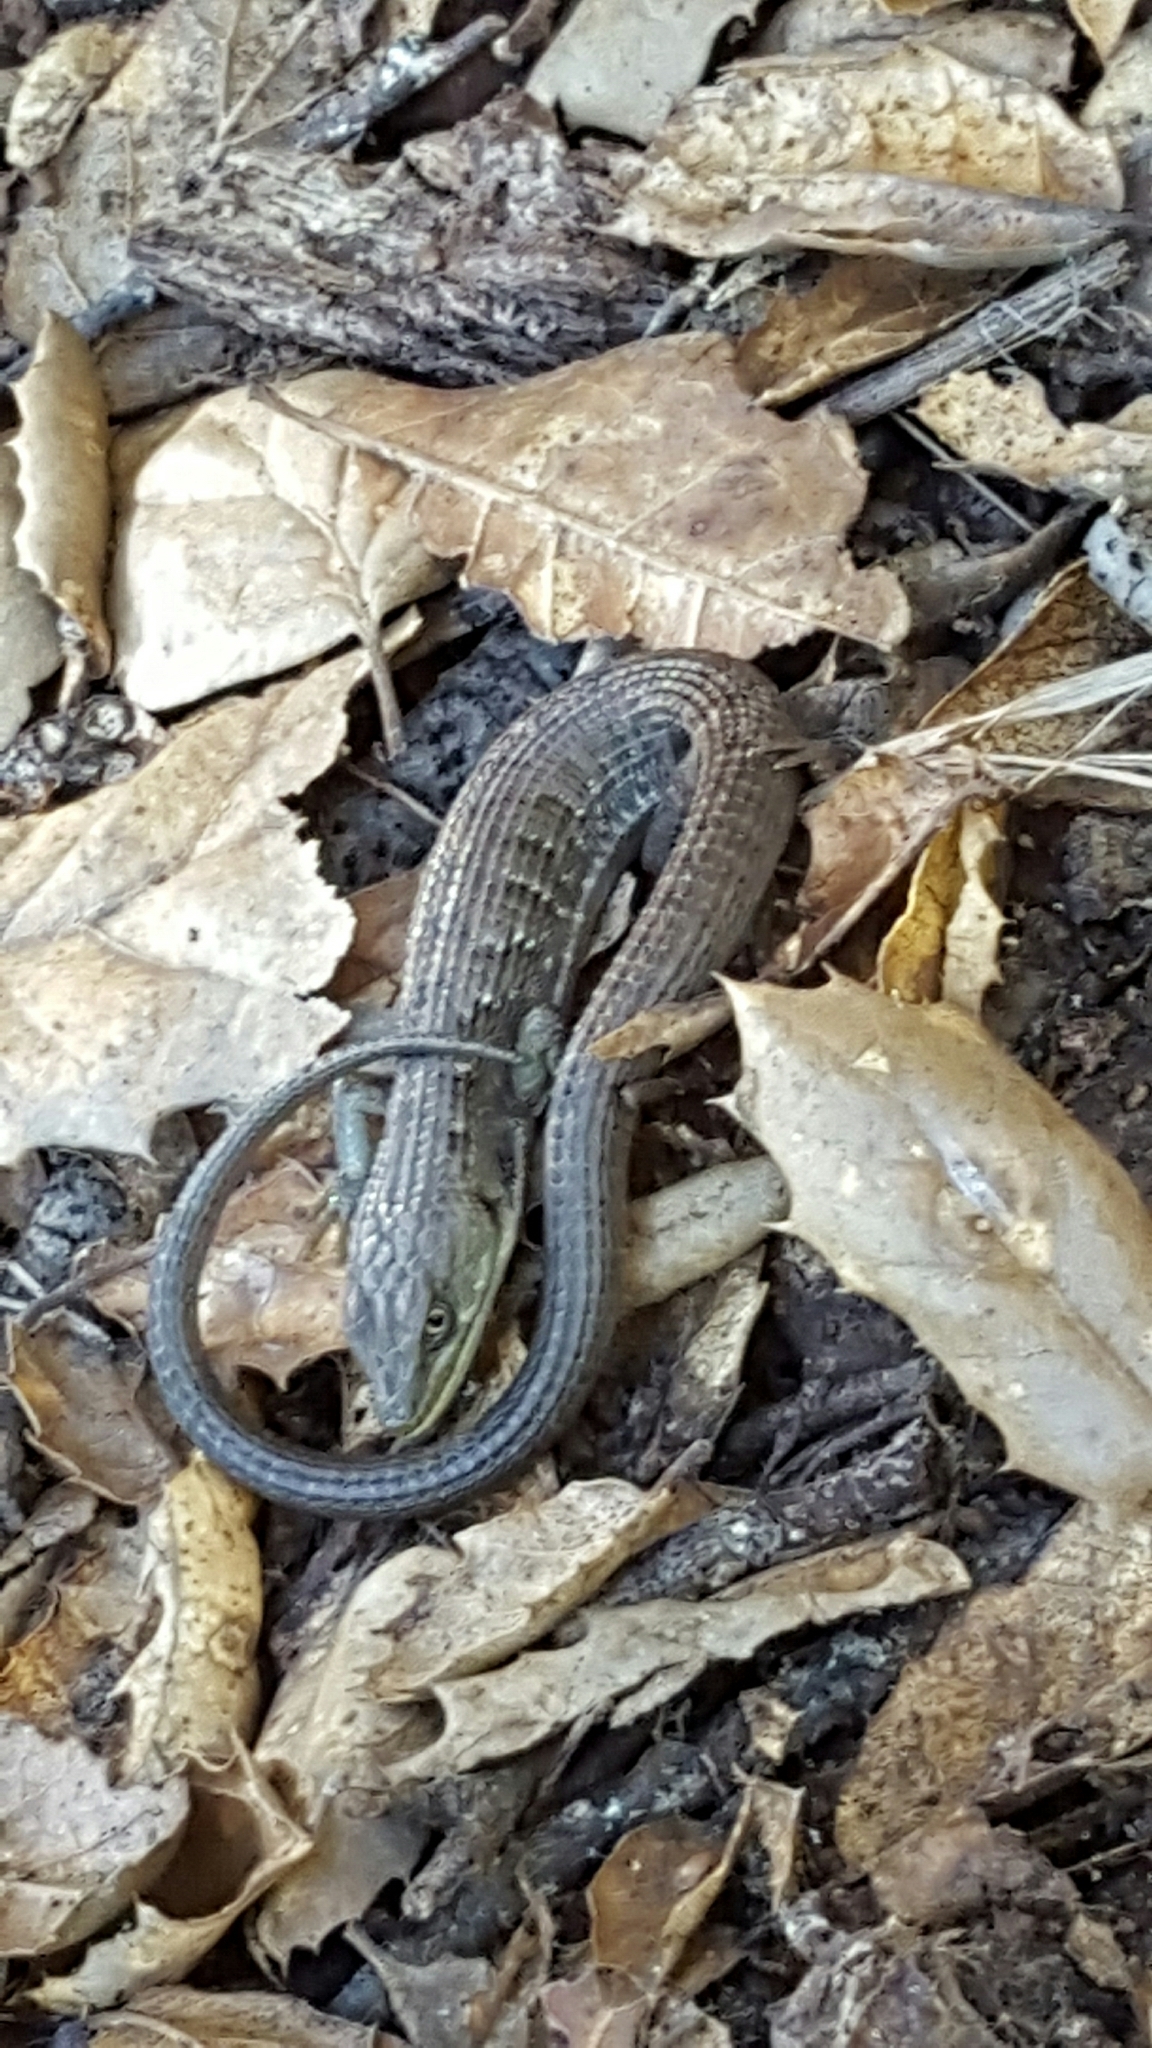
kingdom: Animalia
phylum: Chordata
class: Squamata
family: Anguidae
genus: Elgaria
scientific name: Elgaria multicarinata
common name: Southern alligator lizard
